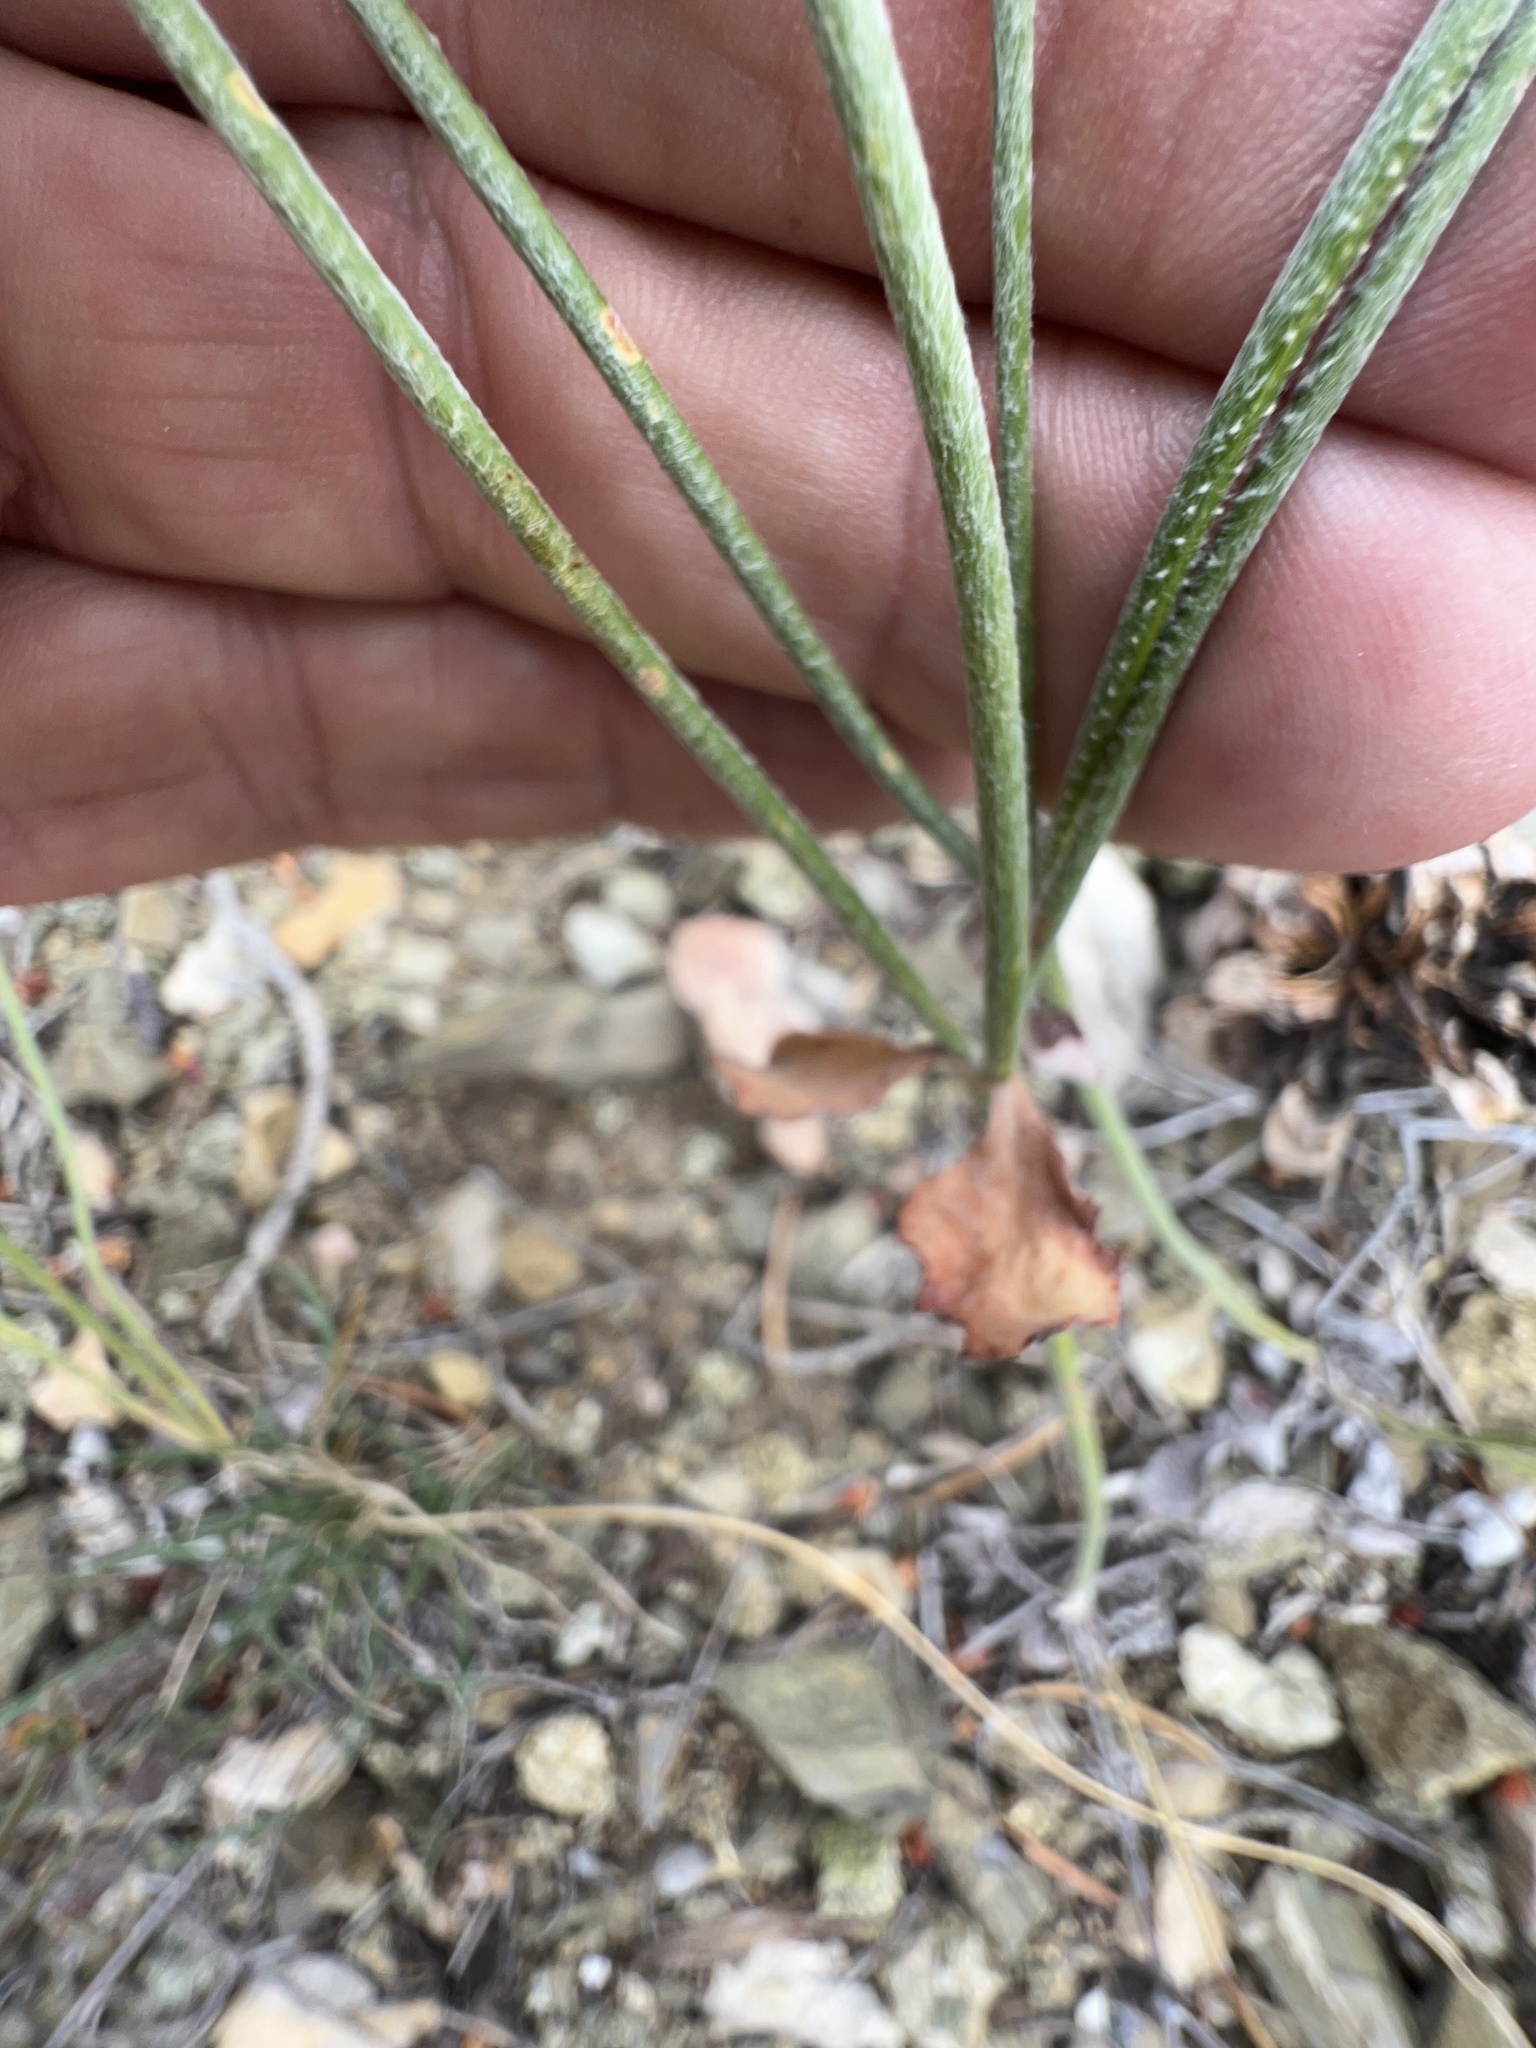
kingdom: Plantae
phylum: Tracheophyta
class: Magnoliopsida
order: Caryophyllales
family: Polygonaceae
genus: Eriogonum
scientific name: Eriogonum panamintense
